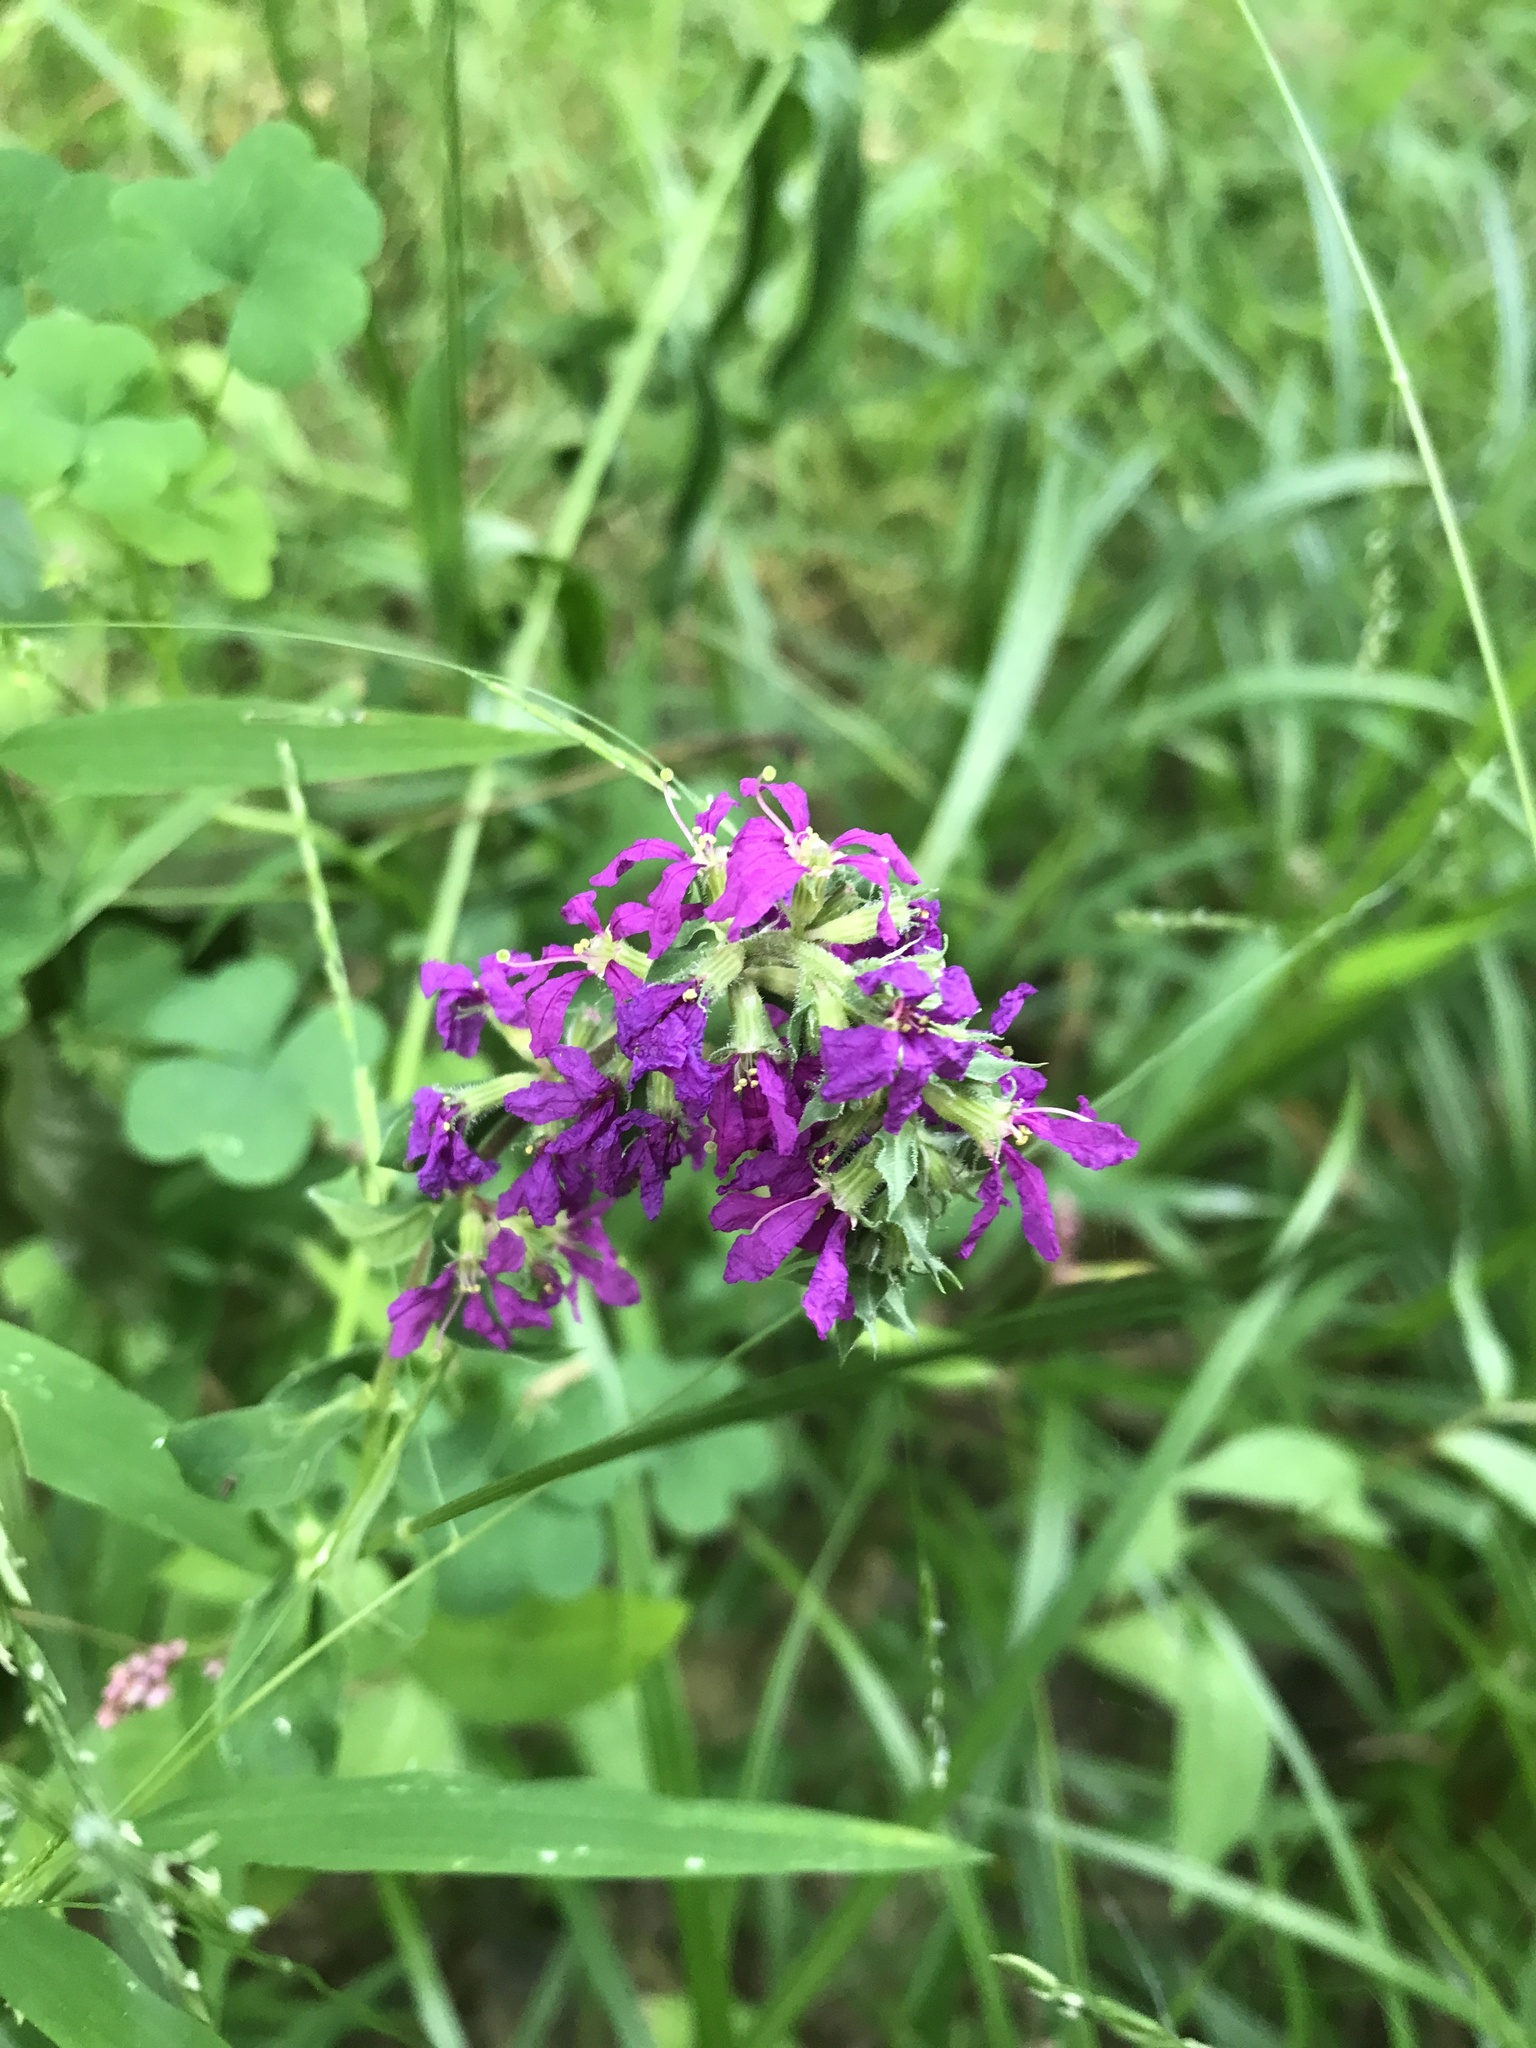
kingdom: Plantae
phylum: Tracheophyta
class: Magnoliopsida
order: Myrtales
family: Lythraceae
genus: Lythrum
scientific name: Lythrum salicaria
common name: Purple loosestrife
